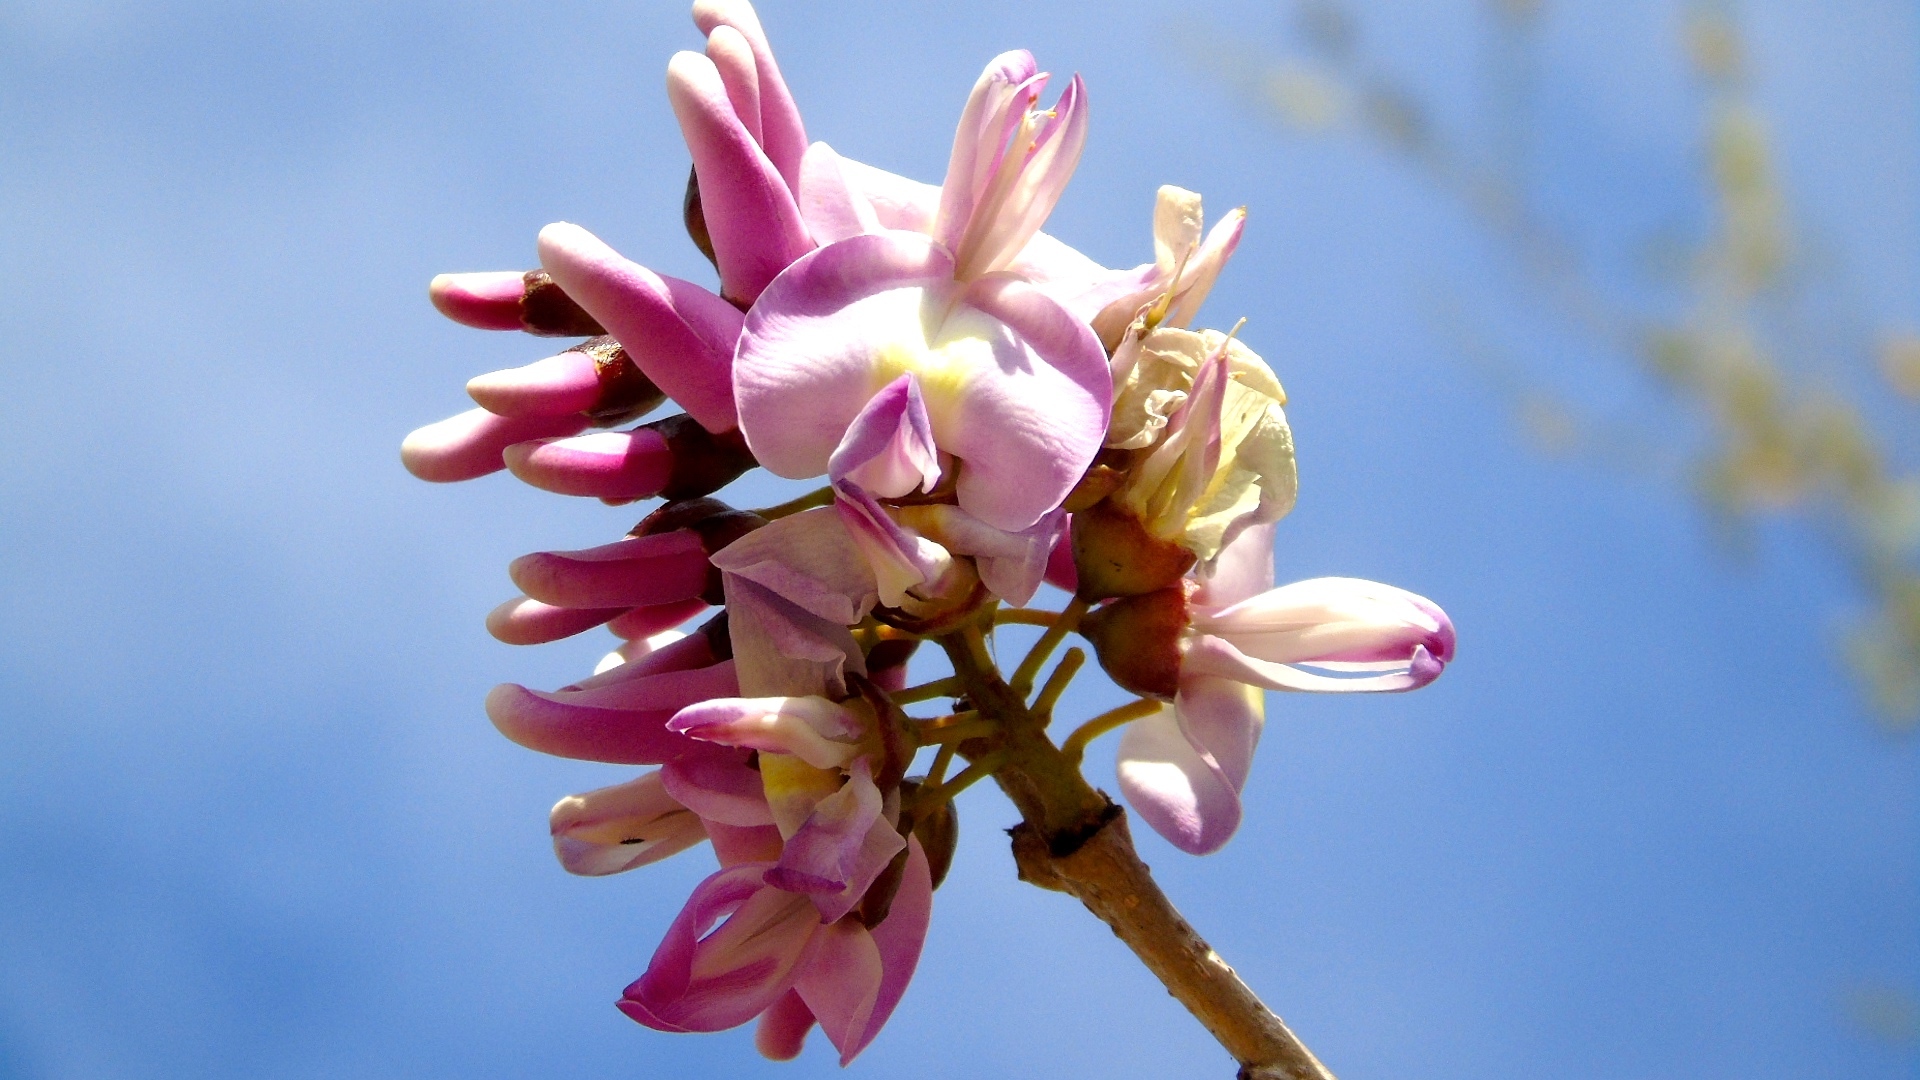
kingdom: Plantae
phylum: Tracheophyta
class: Magnoliopsida
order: Fabales
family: Fabaceae
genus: Gliricidia
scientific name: Gliricidia sepium
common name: Quickstick
